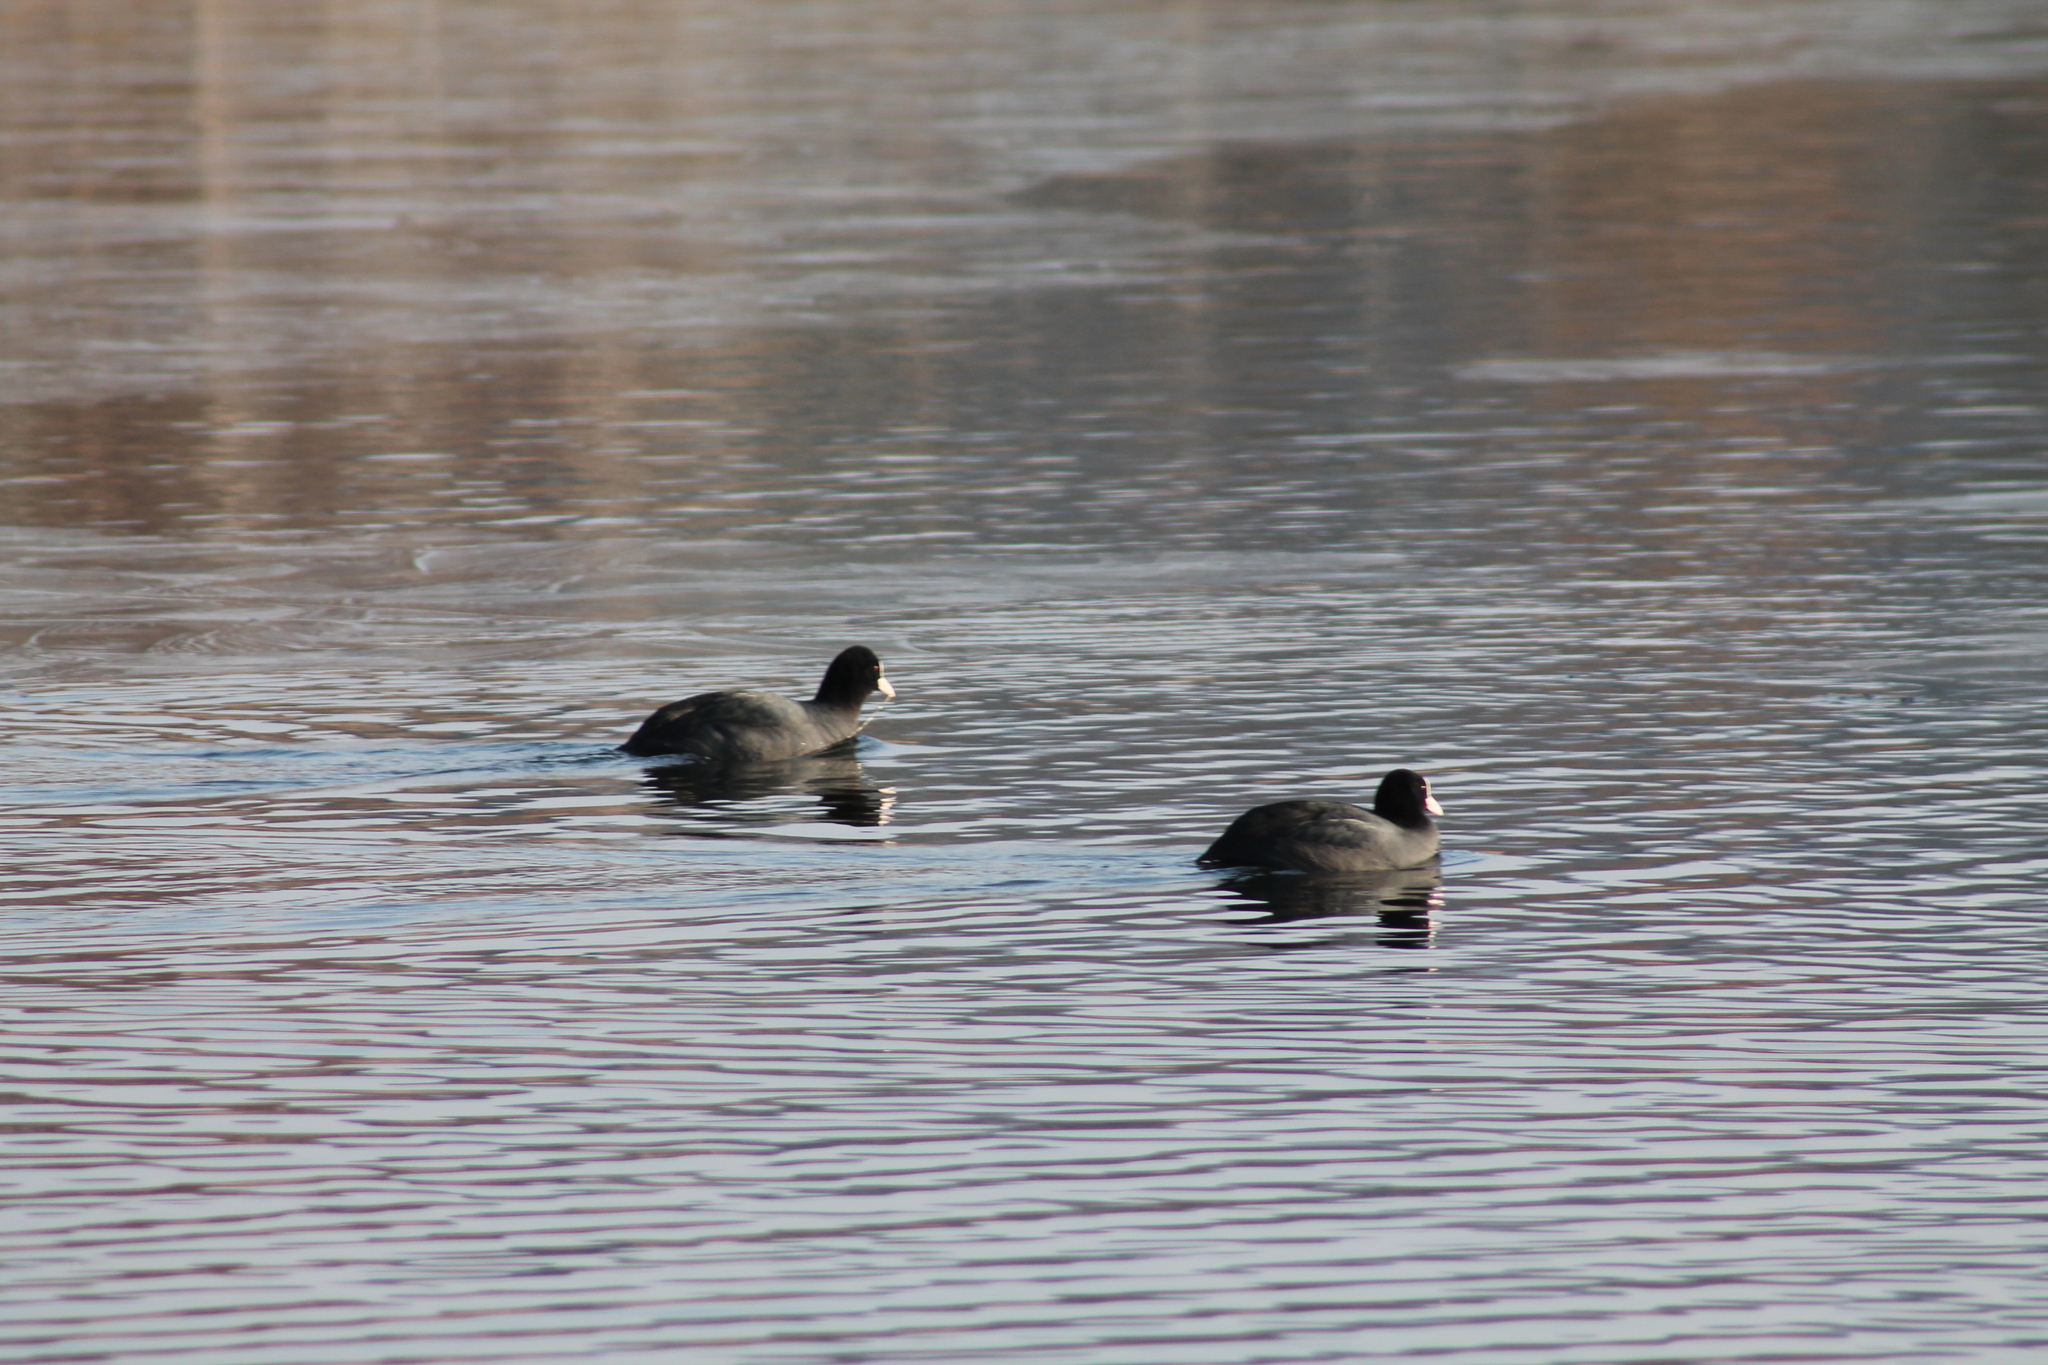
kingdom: Animalia
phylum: Chordata
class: Aves
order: Gruiformes
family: Rallidae
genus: Fulica
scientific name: Fulica atra
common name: Eurasian coot
